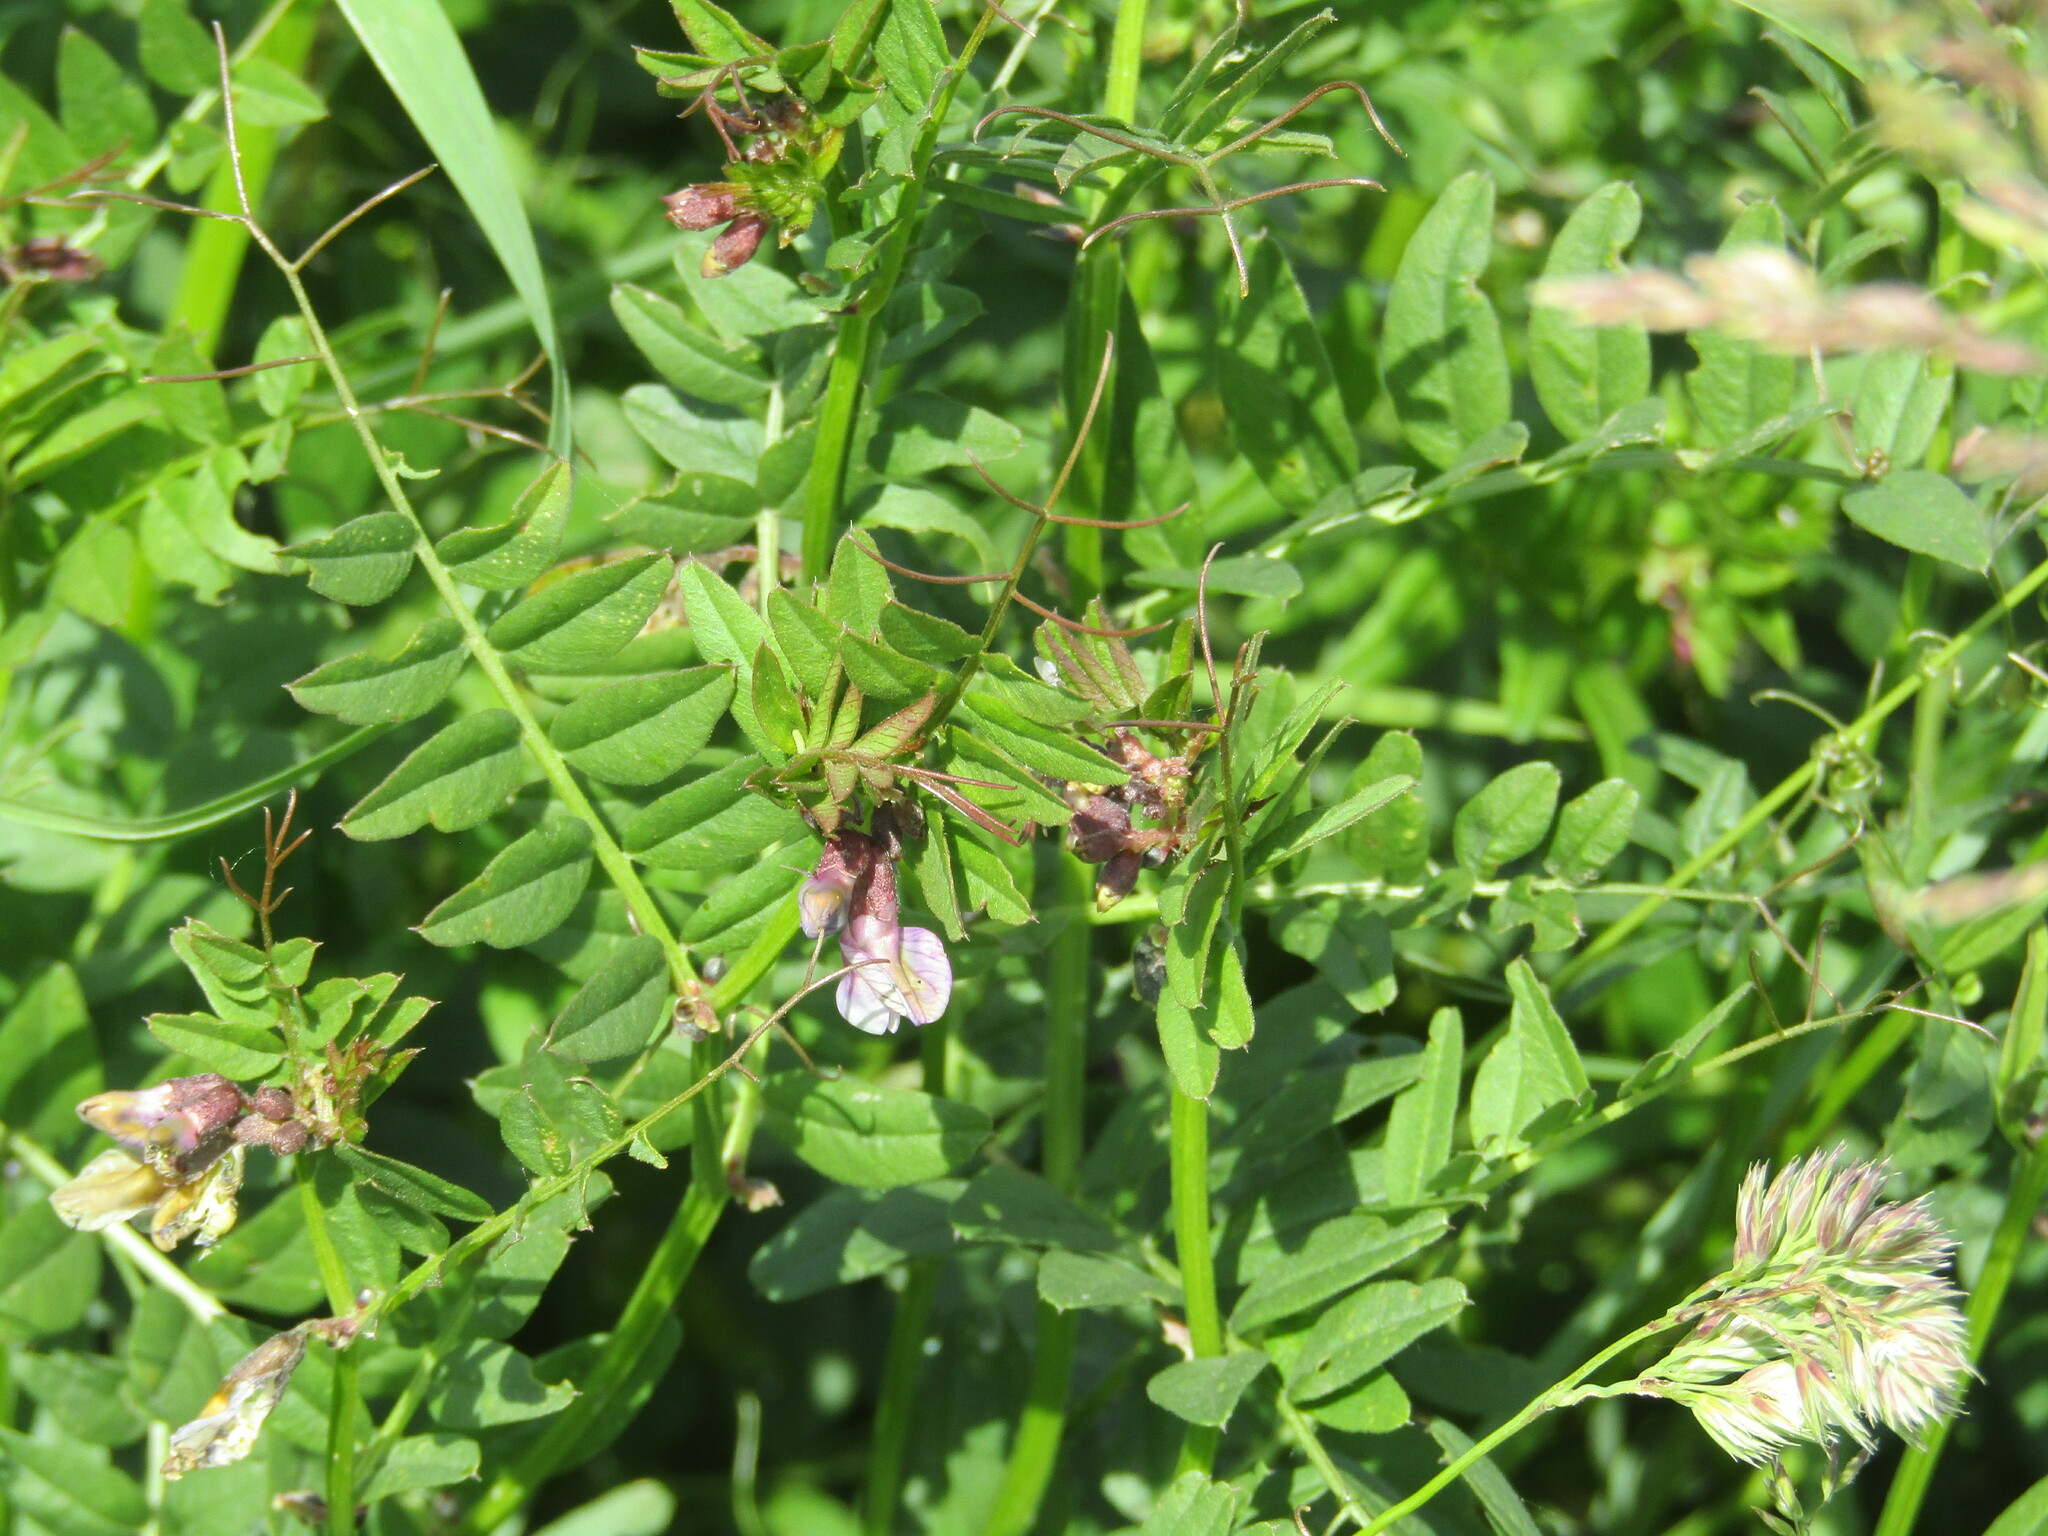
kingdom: Plantae
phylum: Tracheophyta
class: Magnoliopsida
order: Fabales
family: Fabaceae
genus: Vicia
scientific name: Vicia sepium
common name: Bush vetch
